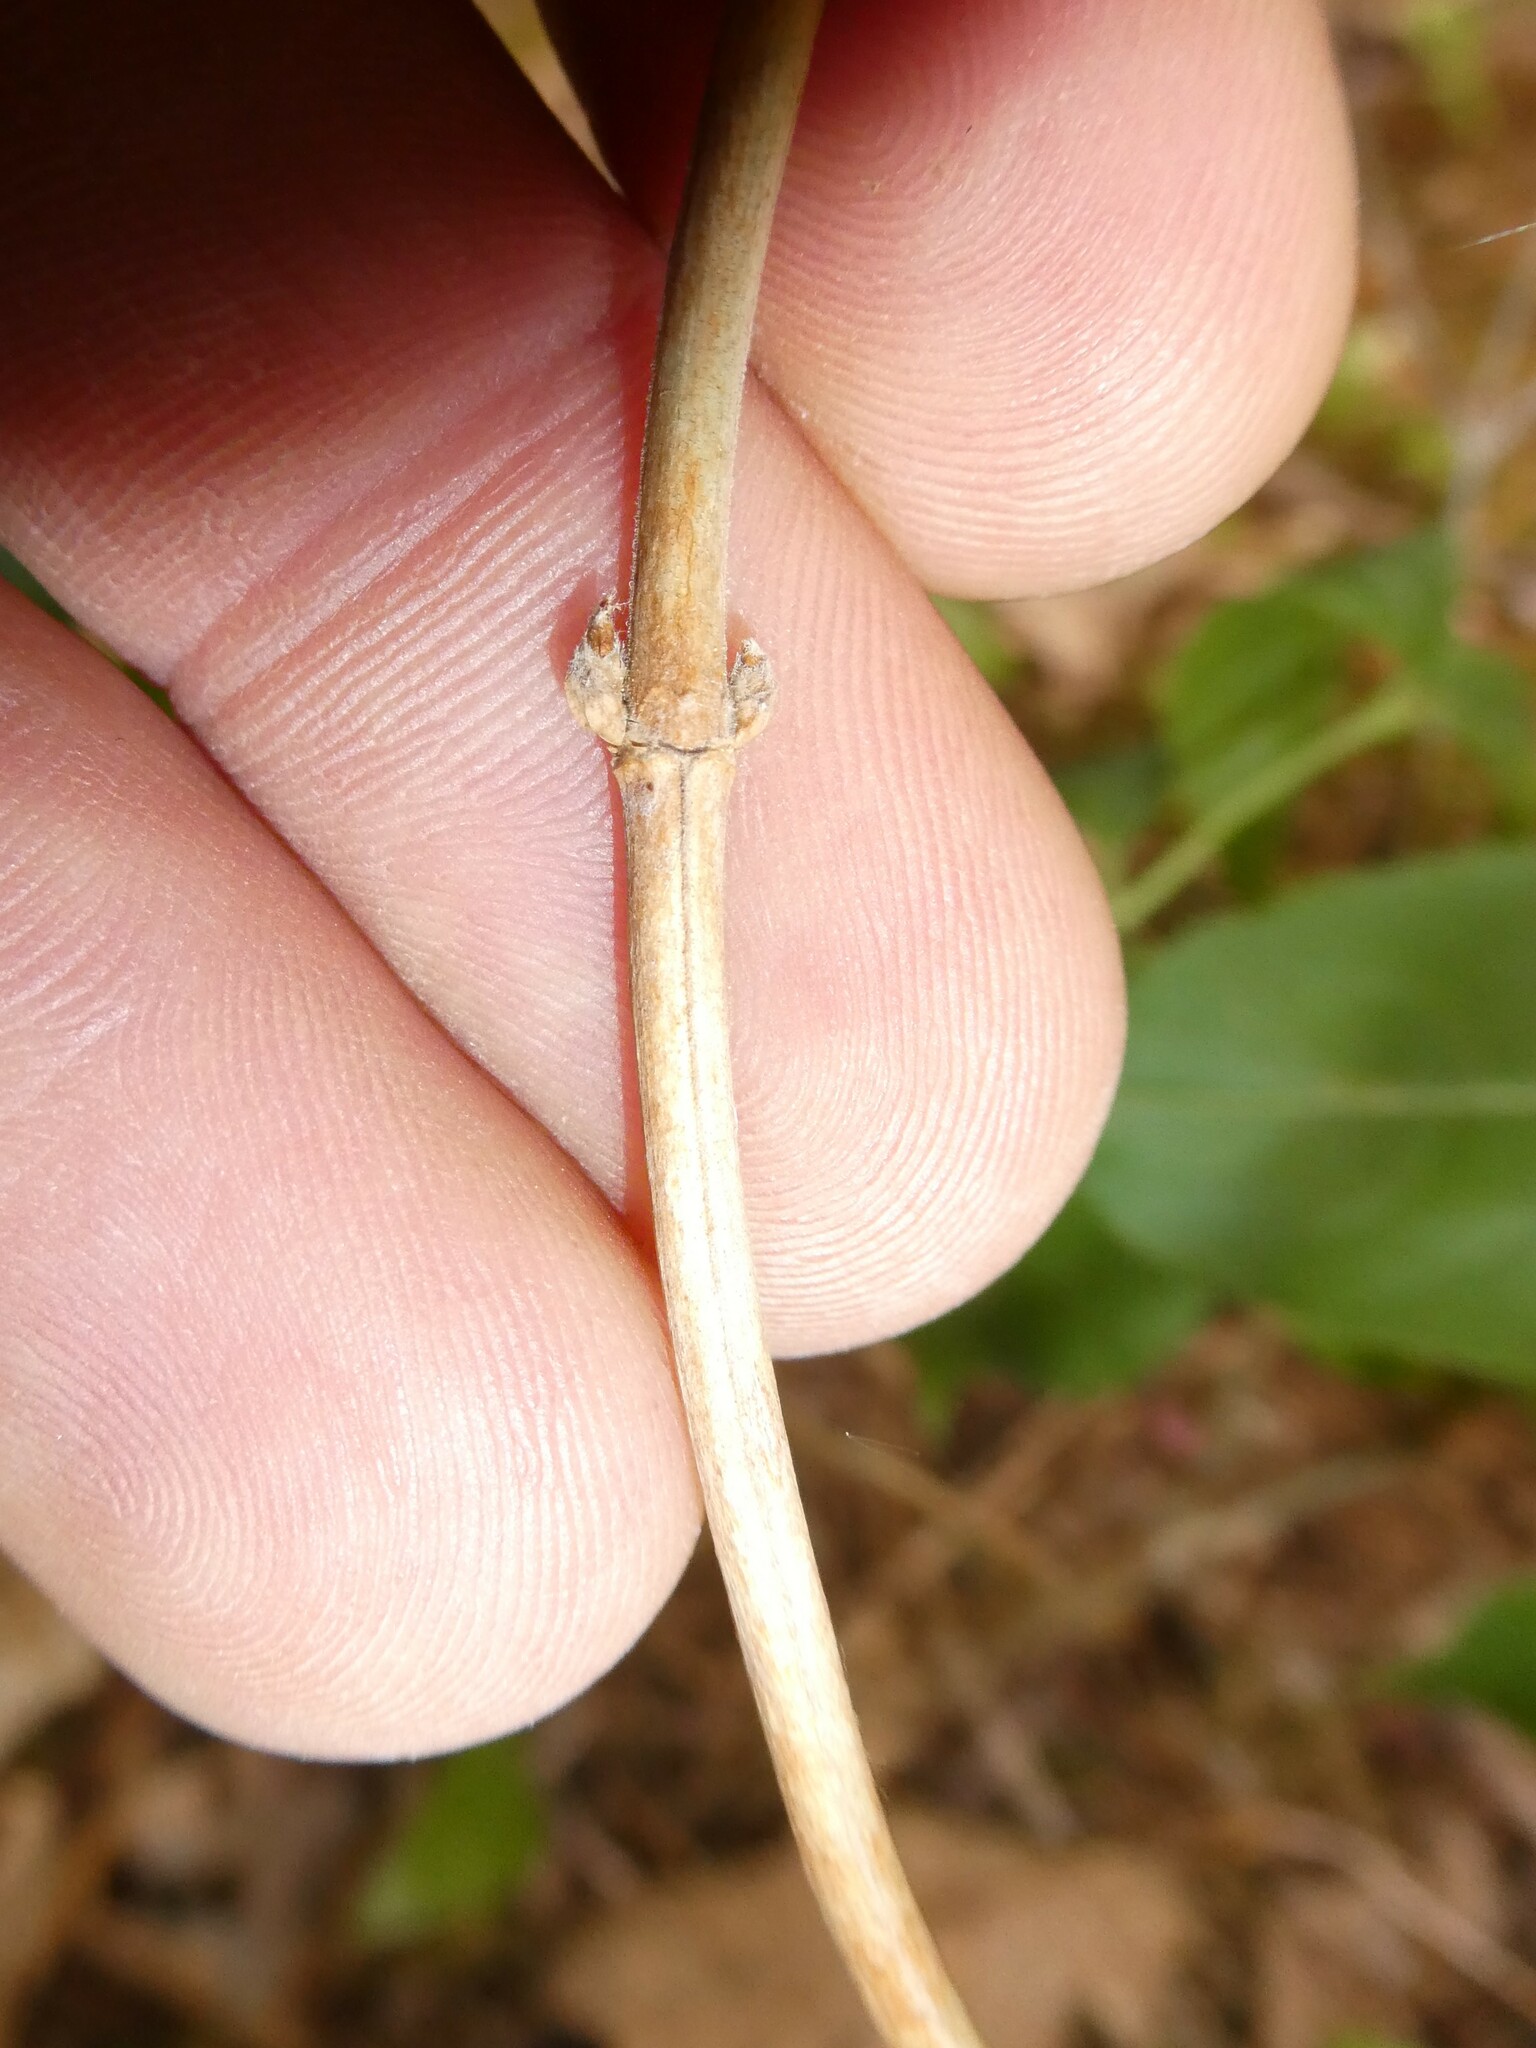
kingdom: Plantae
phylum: Tracheophyta
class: Magnoliopsida
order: Dipsacales
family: Caprifoliaceae
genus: Diervilla
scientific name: Diervilla lonicera
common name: Bush-honeysuckle
